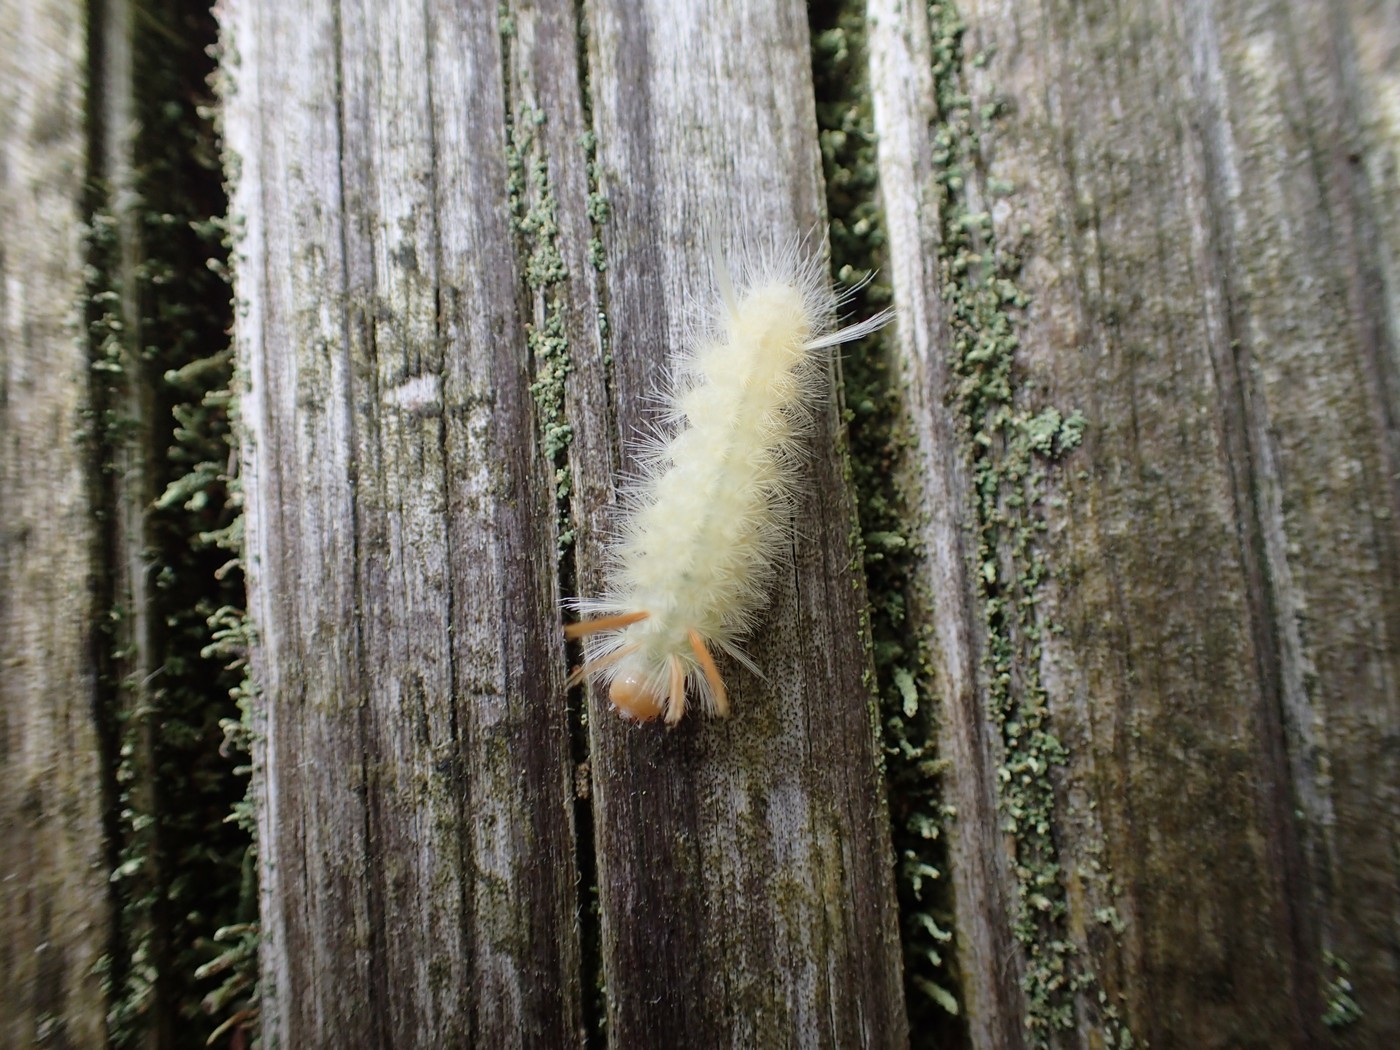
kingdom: Animalia
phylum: Arthropoda
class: Insecta
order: Lepidoptera
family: Erebidae
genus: Halysidota
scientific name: Halysidota harrisii
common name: Sycamore tussock moth
